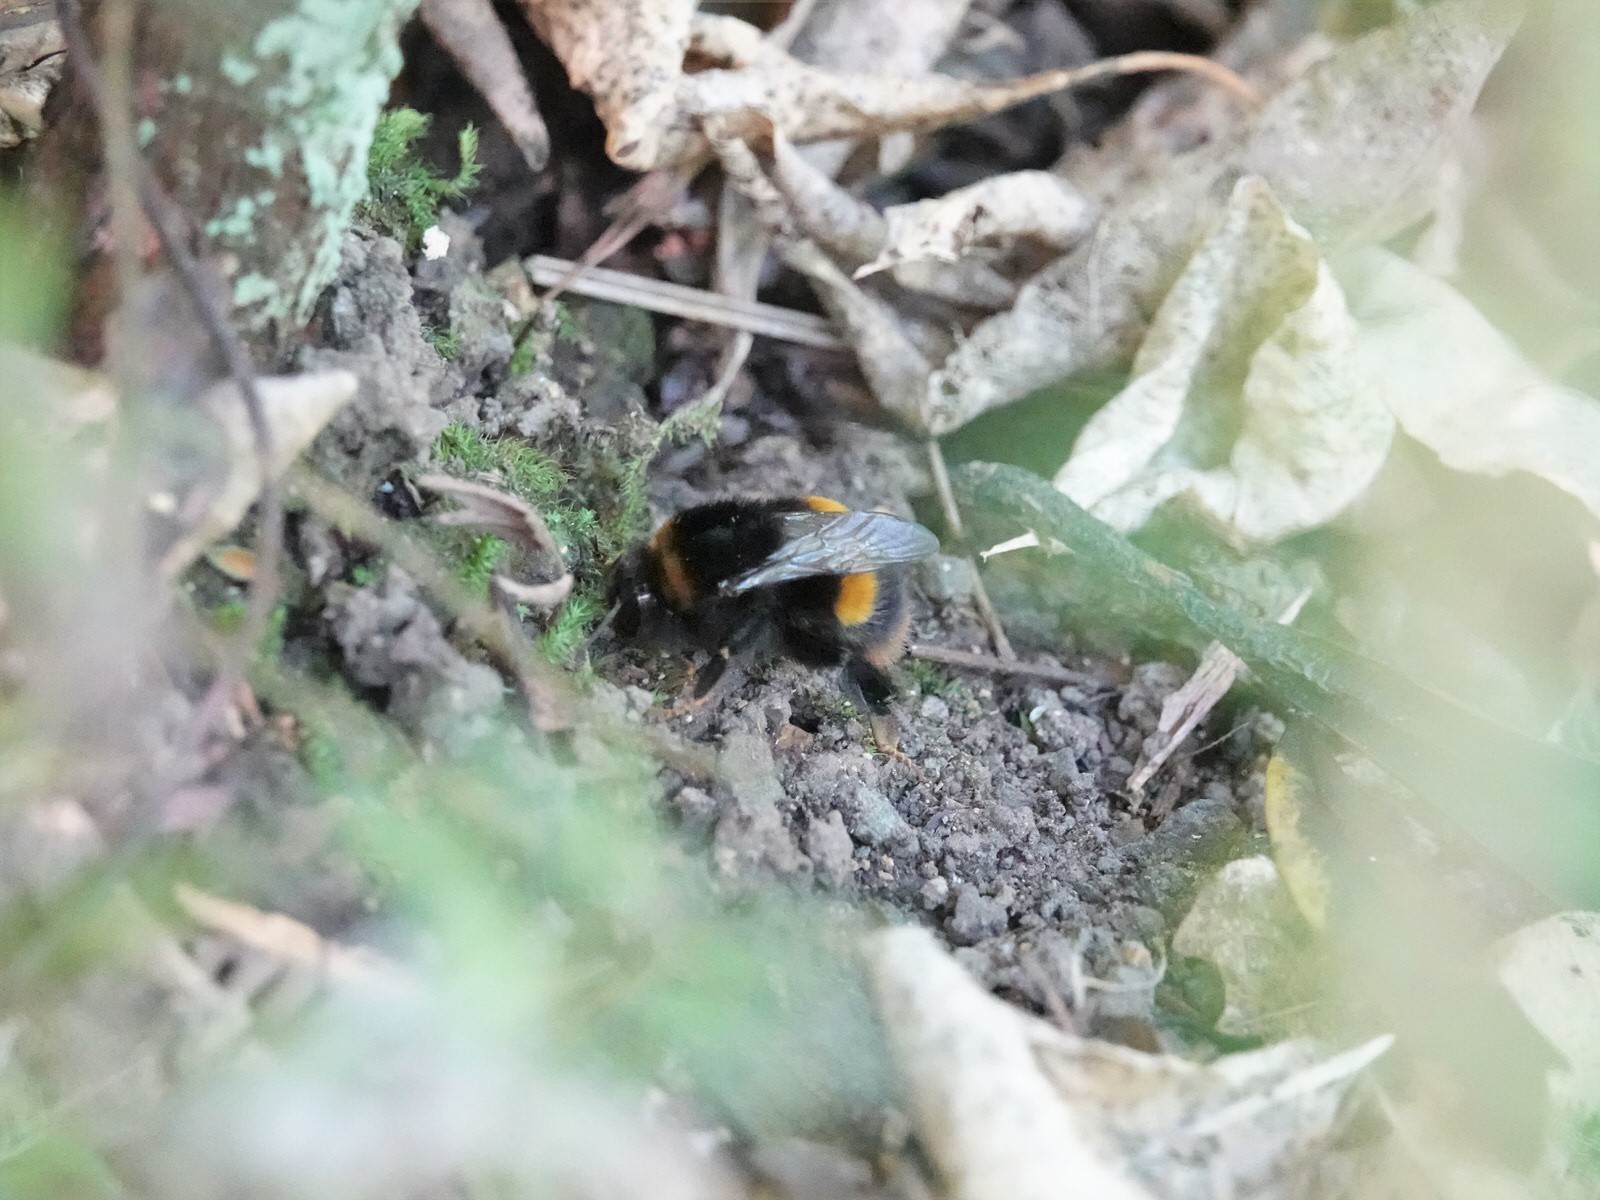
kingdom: Animalia
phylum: Arthropoda
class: Insecta
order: Hymenoptera
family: Apidae
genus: Bombus
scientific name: Bombus terrestris
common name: Buff-tailed bumblebee
